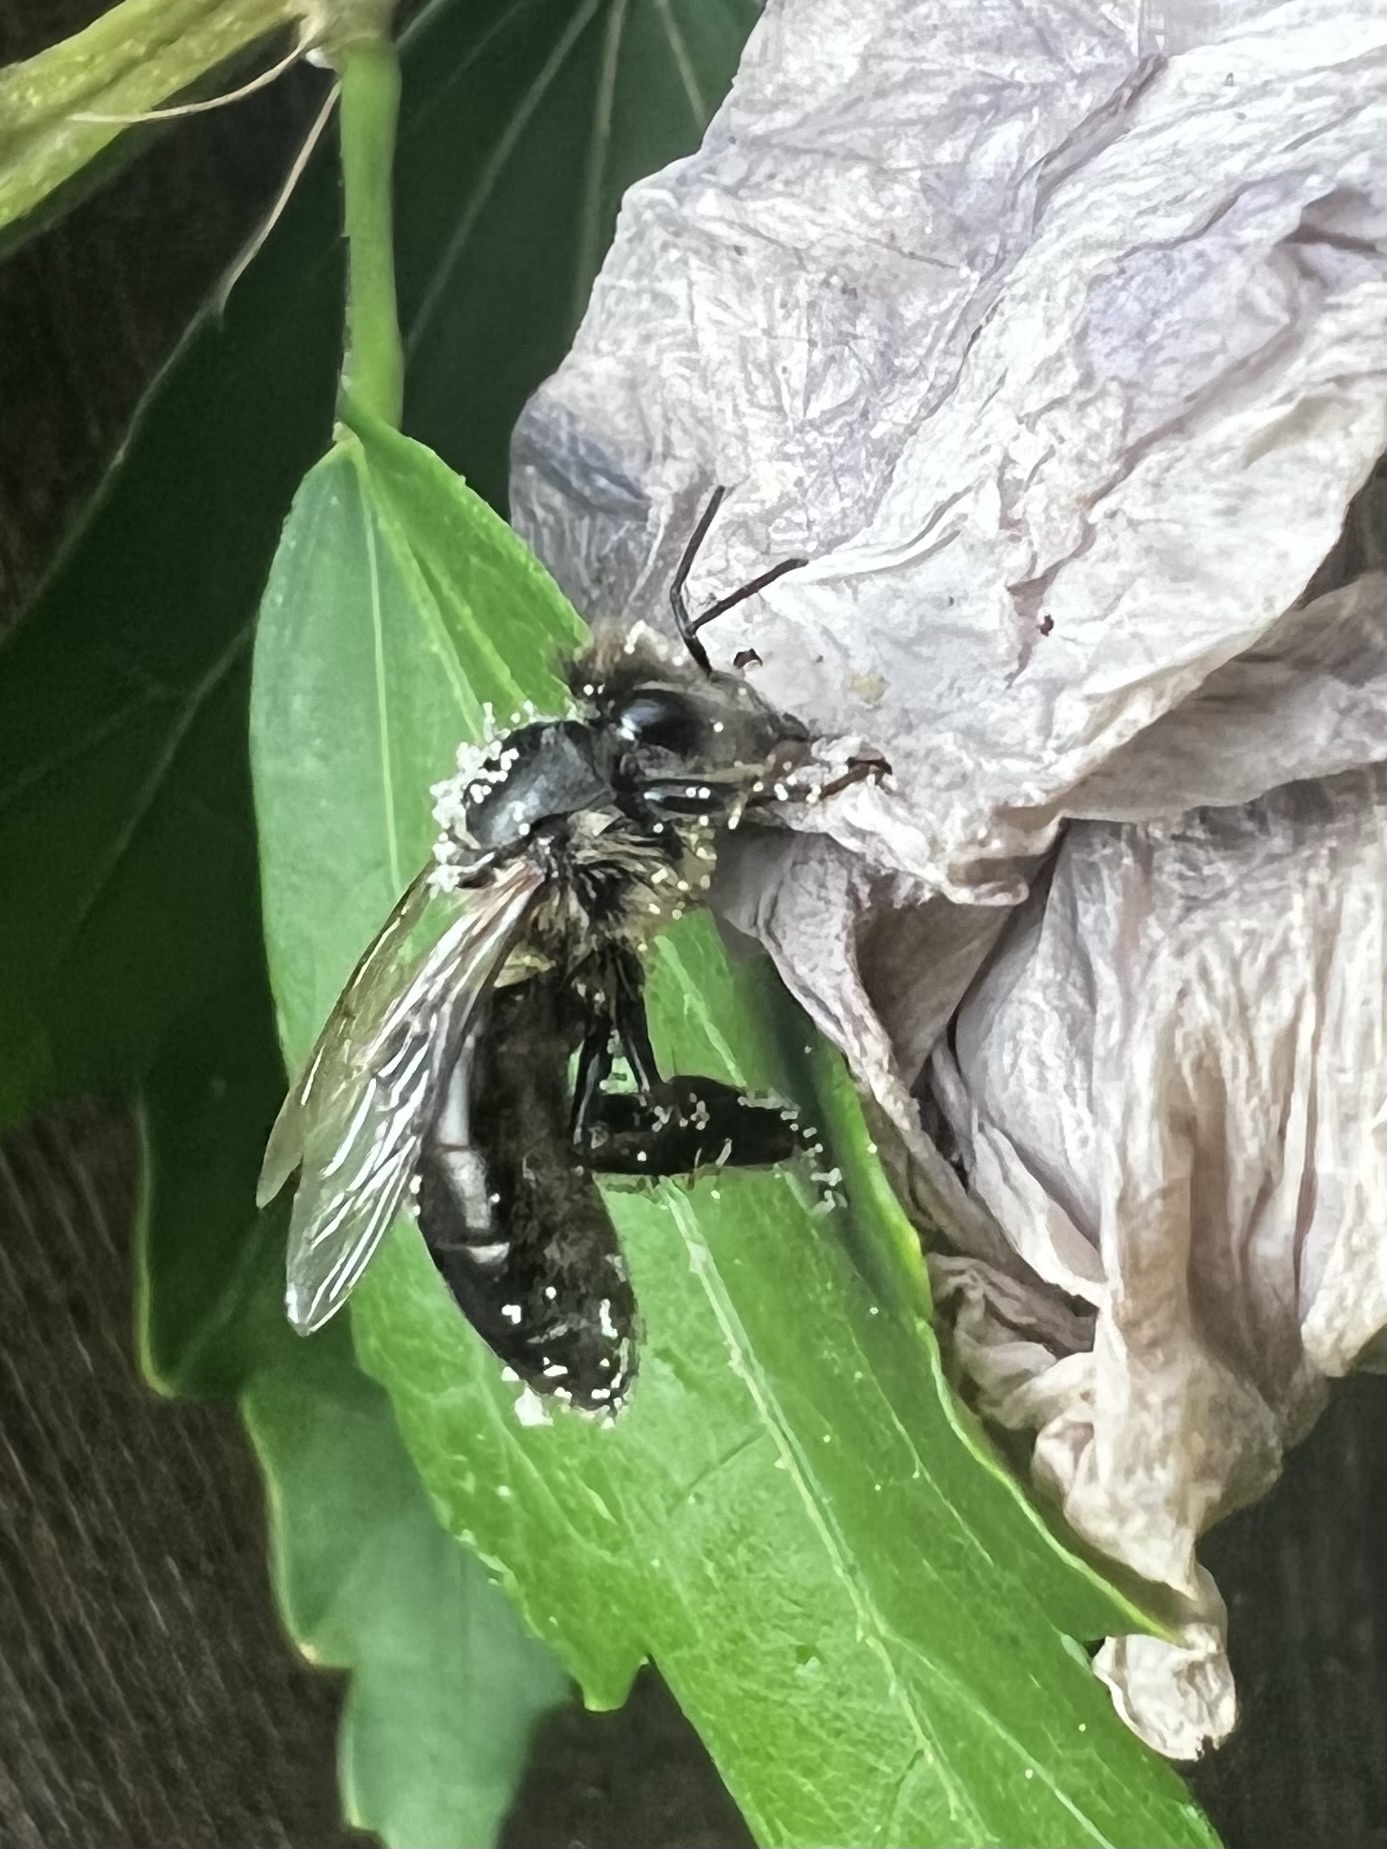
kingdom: Animalia
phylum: Arthropoda
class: Insecta
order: Hymenoptera
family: Apidae
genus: Apis
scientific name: Apis mellifera
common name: Honey bee
